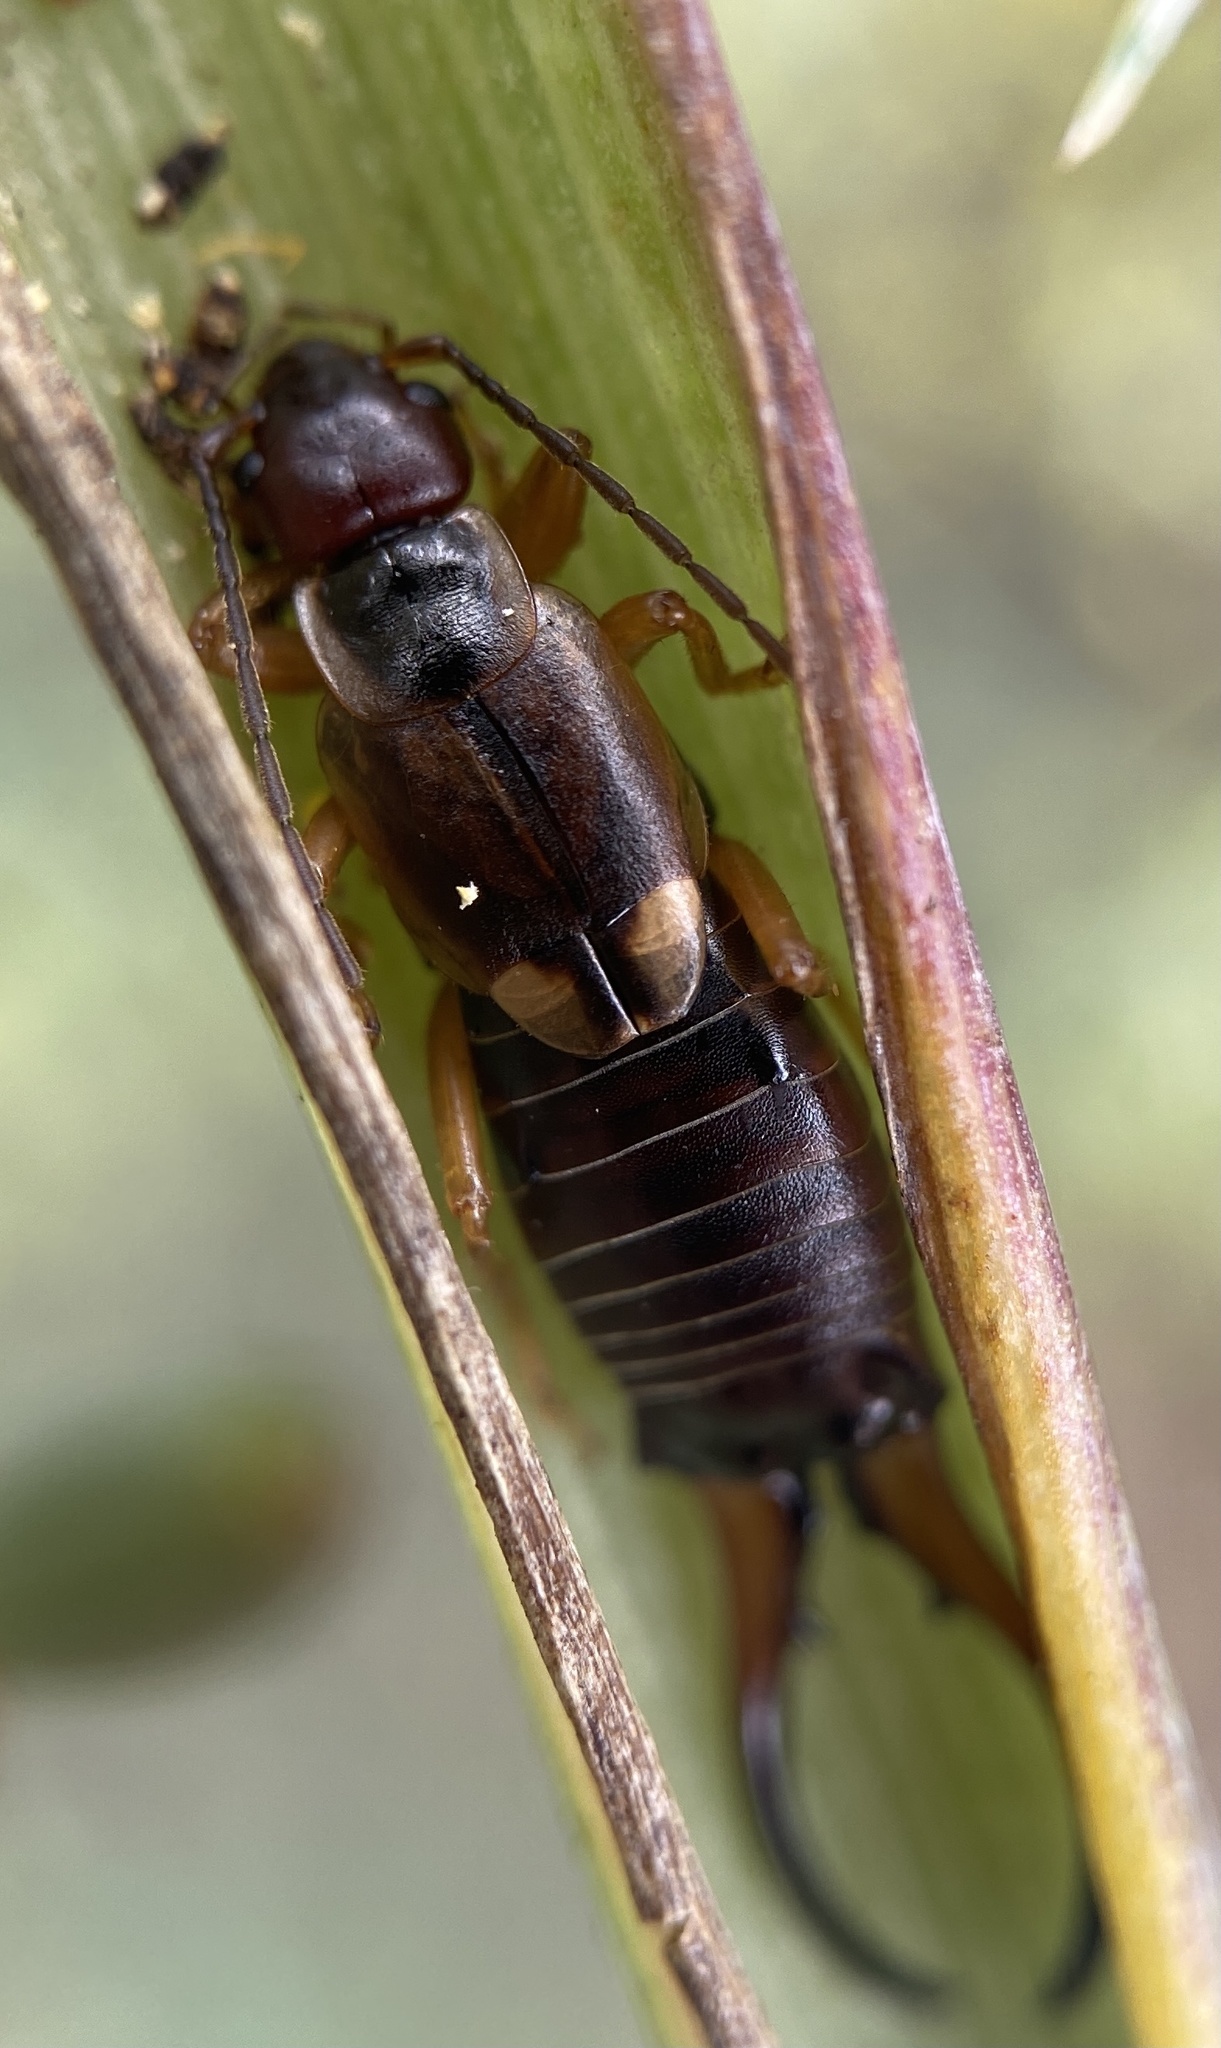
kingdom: Animalia
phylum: Arthropoda
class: Insecta
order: Dermaptera
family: Forficulidae
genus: Forficula
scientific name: Forficula
